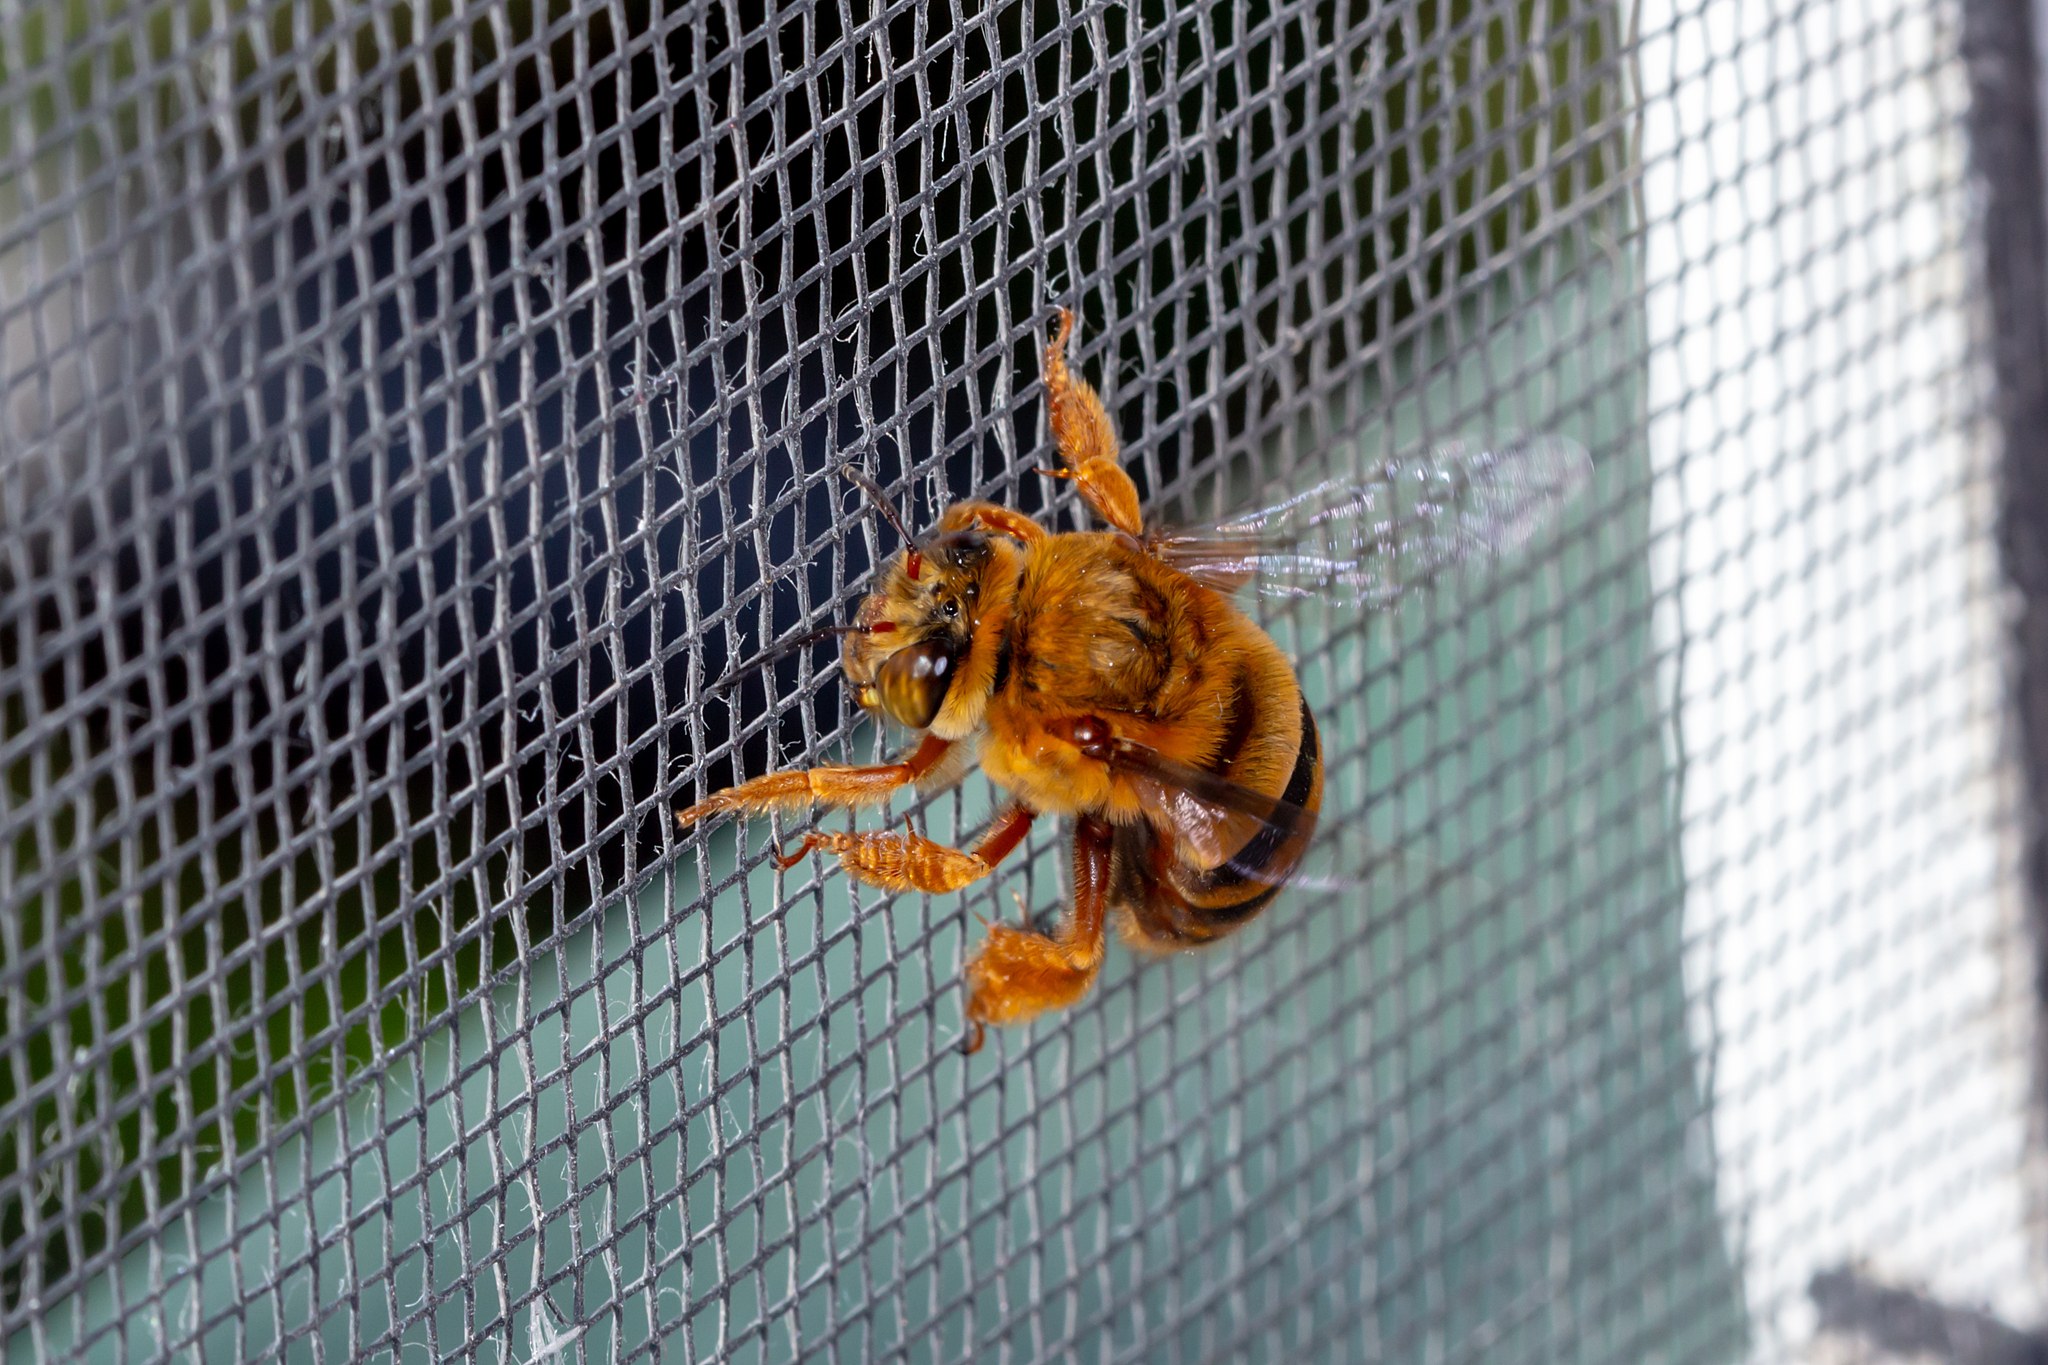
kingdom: Animalia
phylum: Arthropoda
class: Insecta
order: Hymenoptera
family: Apidae
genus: Amegilla
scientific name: Amegilla bombiformis
